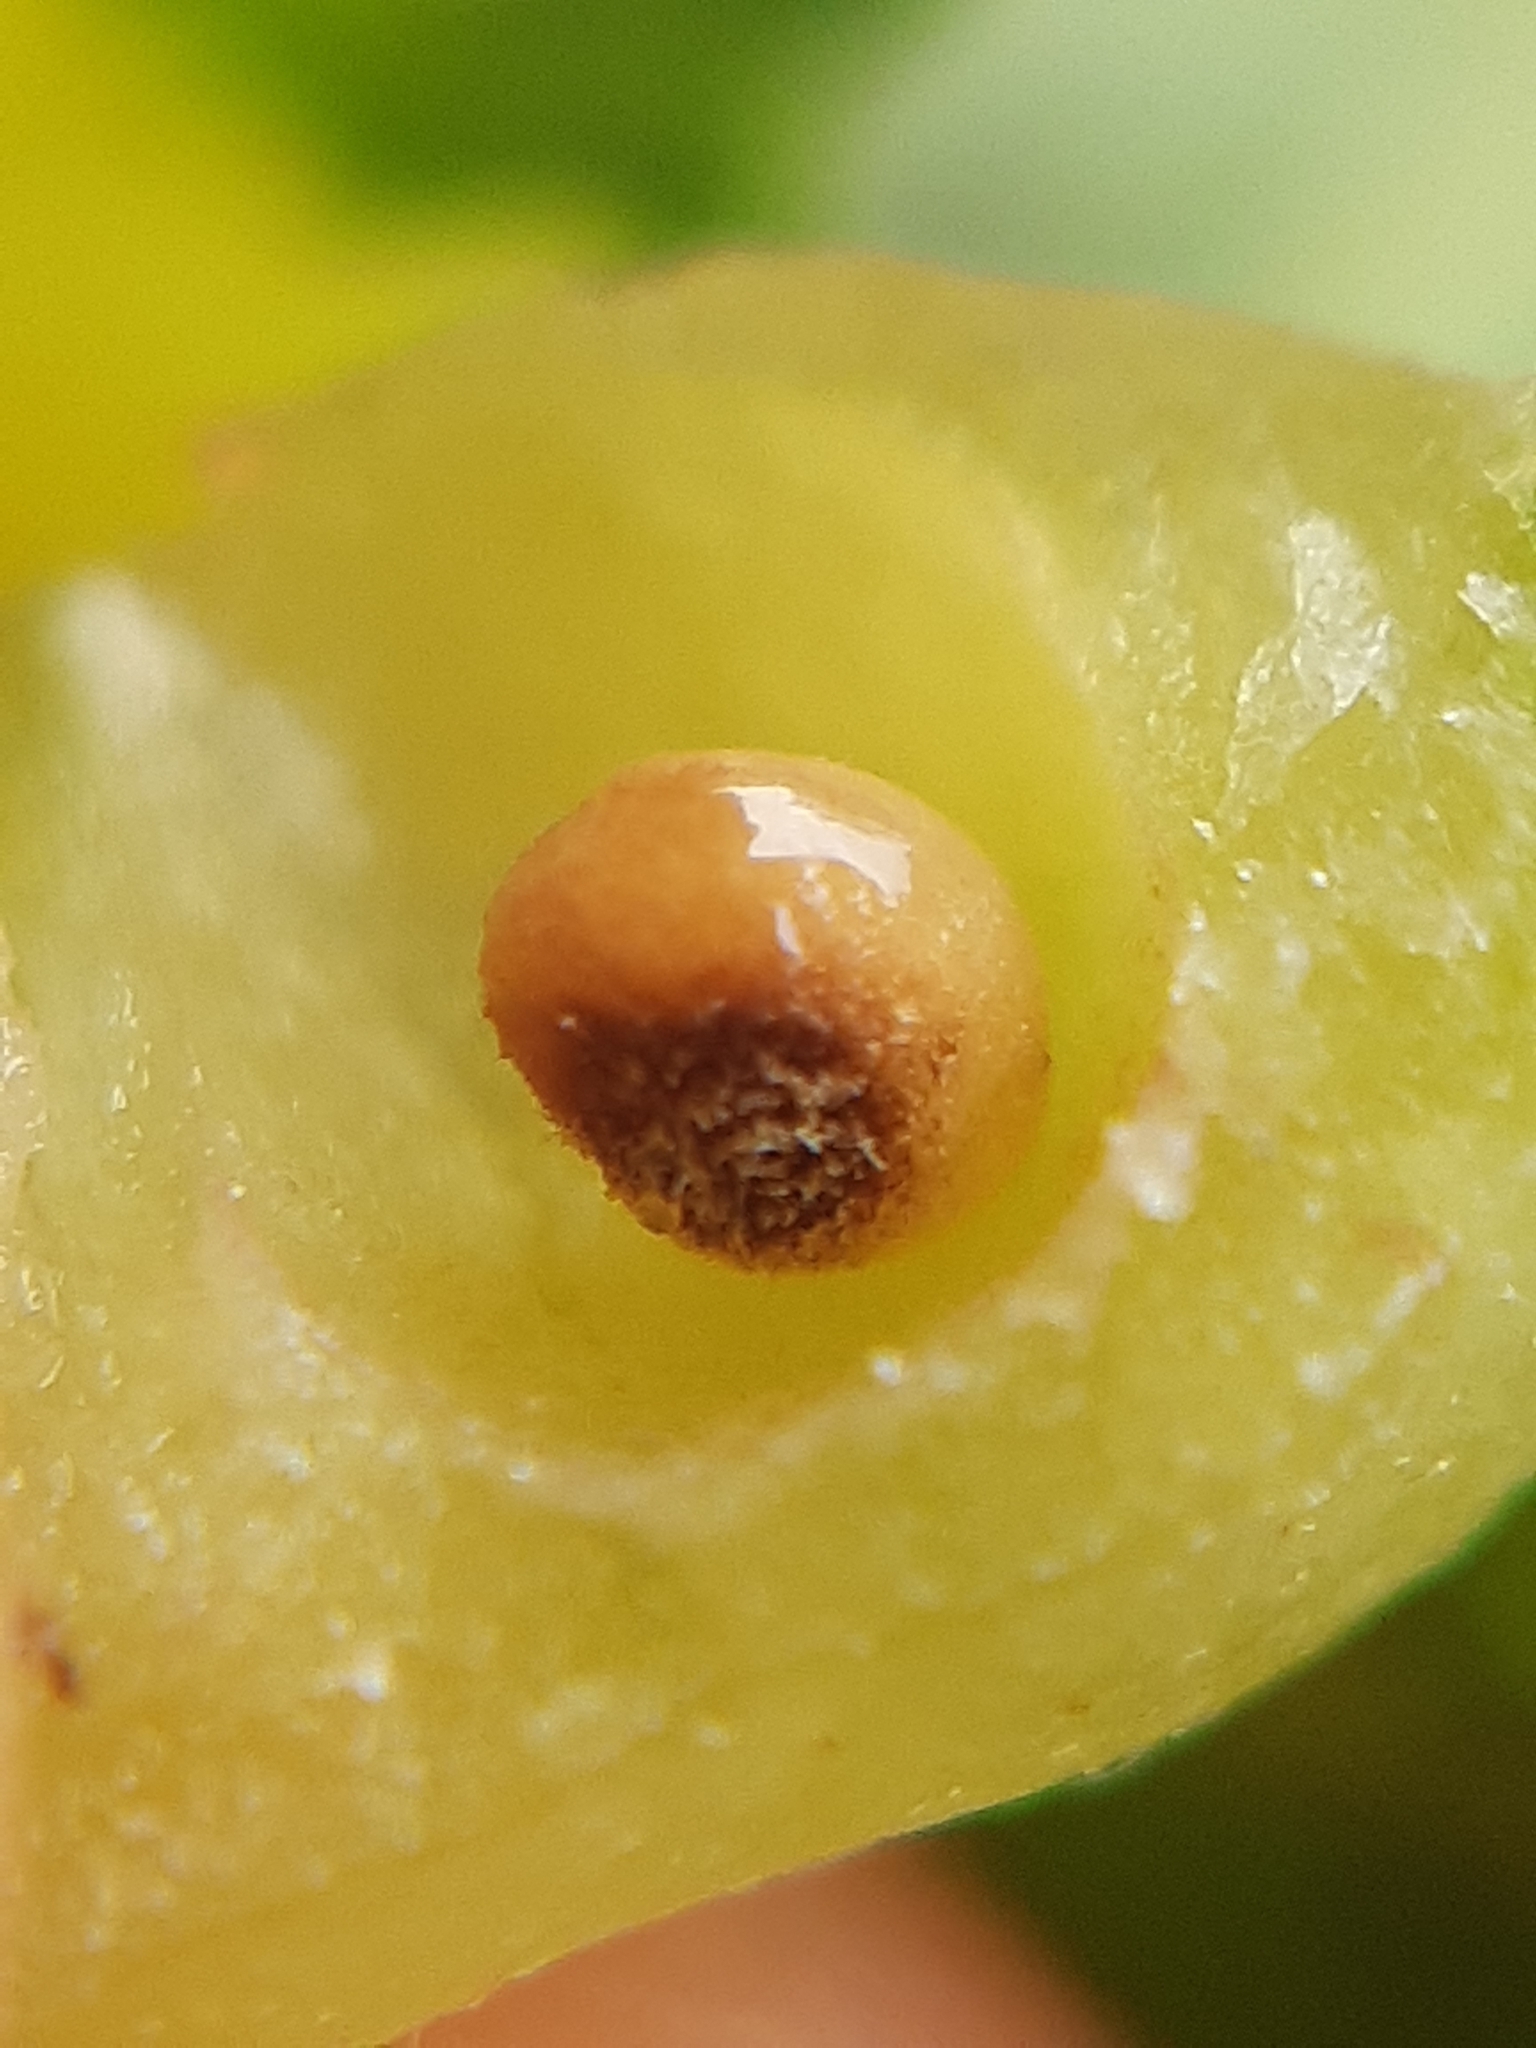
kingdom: Animalia
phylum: Arthropoda
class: Insecta
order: Hymenoptera
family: Cynipidae
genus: Andricus
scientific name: Andricus curvator
